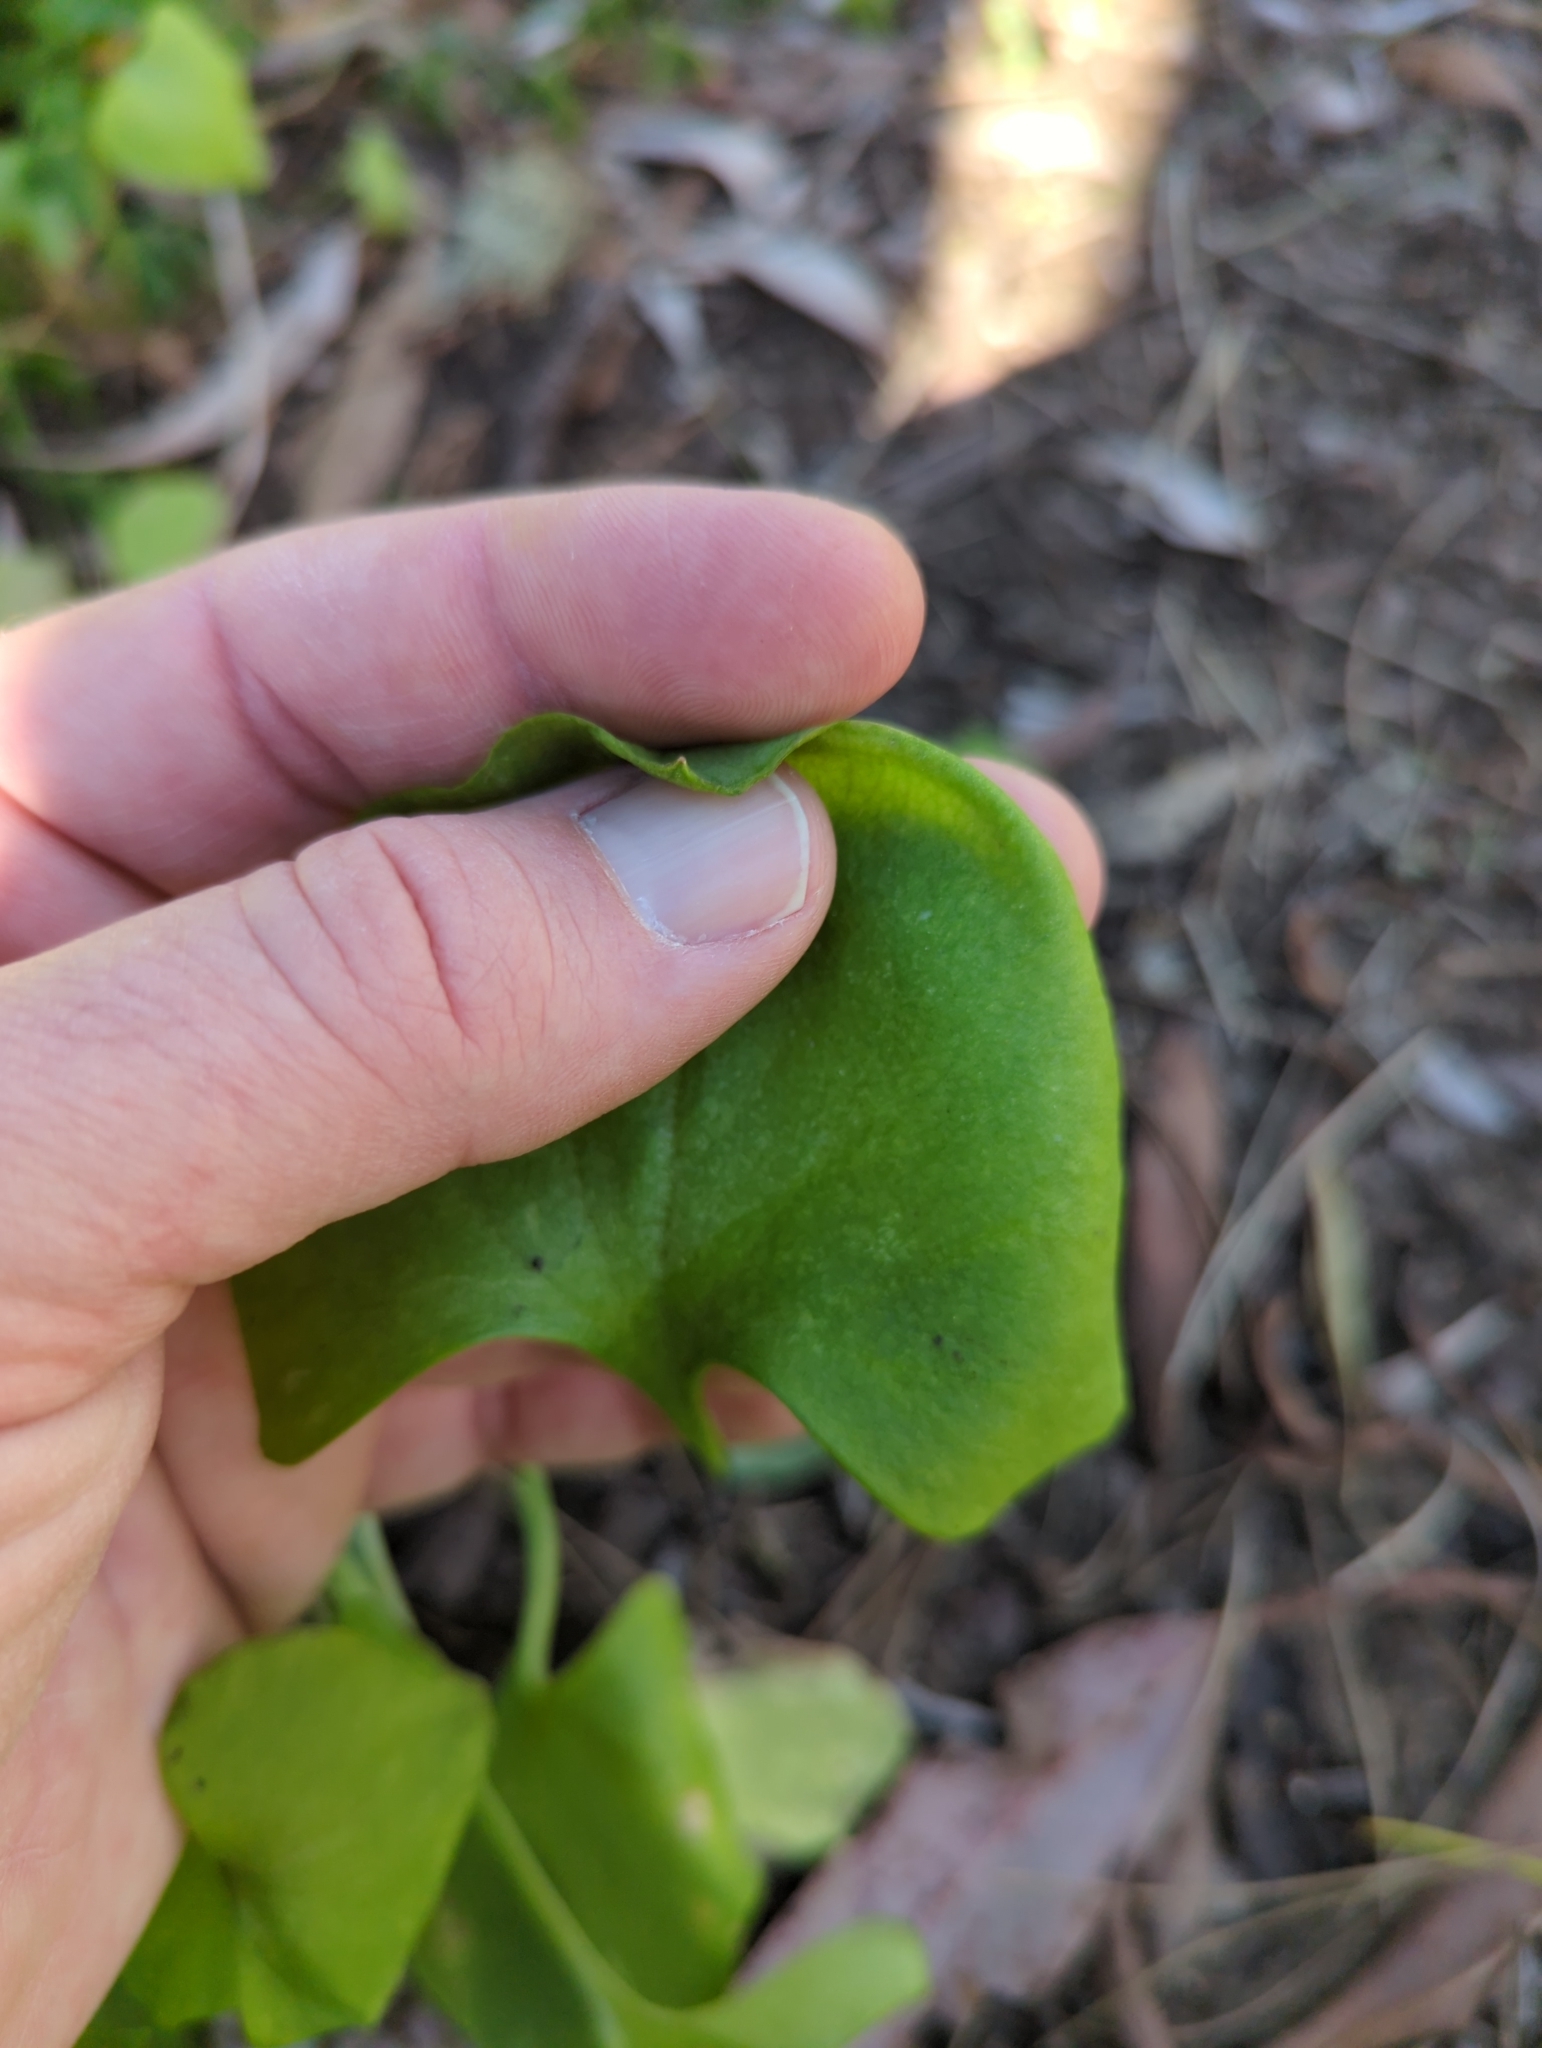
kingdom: Plantae
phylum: Tracheophyta
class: Magnoliopsida
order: Caryophyllales
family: Montiaceae
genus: Claytonia
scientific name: Claytonia perfoliata
